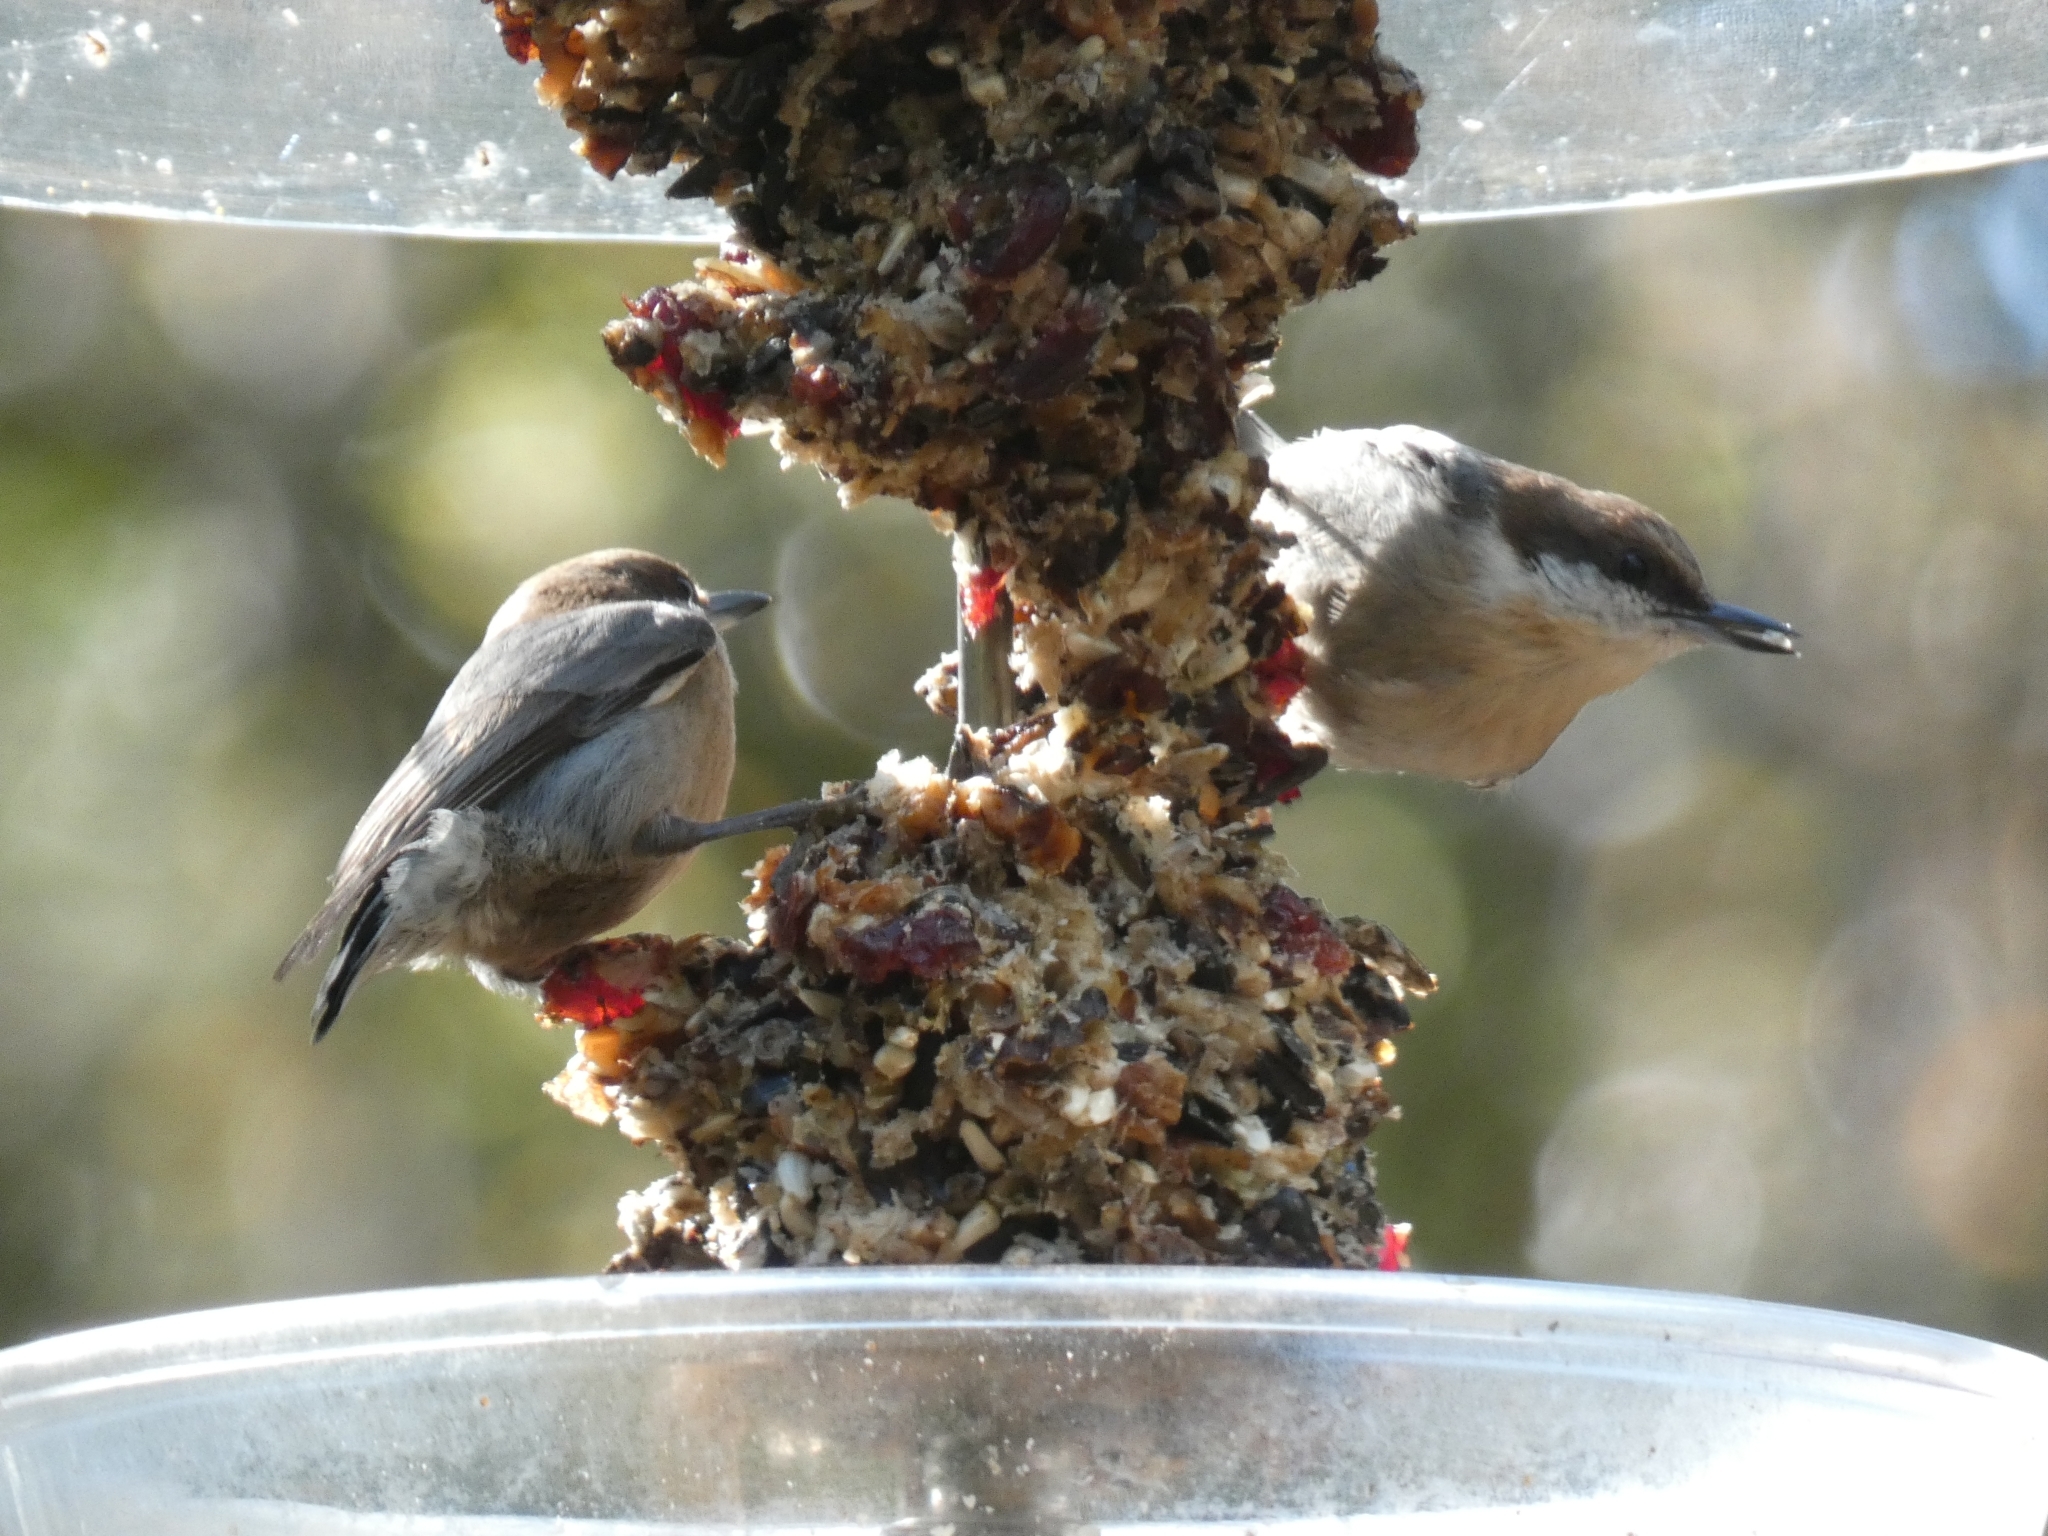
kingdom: Animalia
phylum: Chordata
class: Aves
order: Passeriformes
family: Sittidae
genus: Sitta
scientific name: Sitta pusilla
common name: Brown-headed nuthatch
